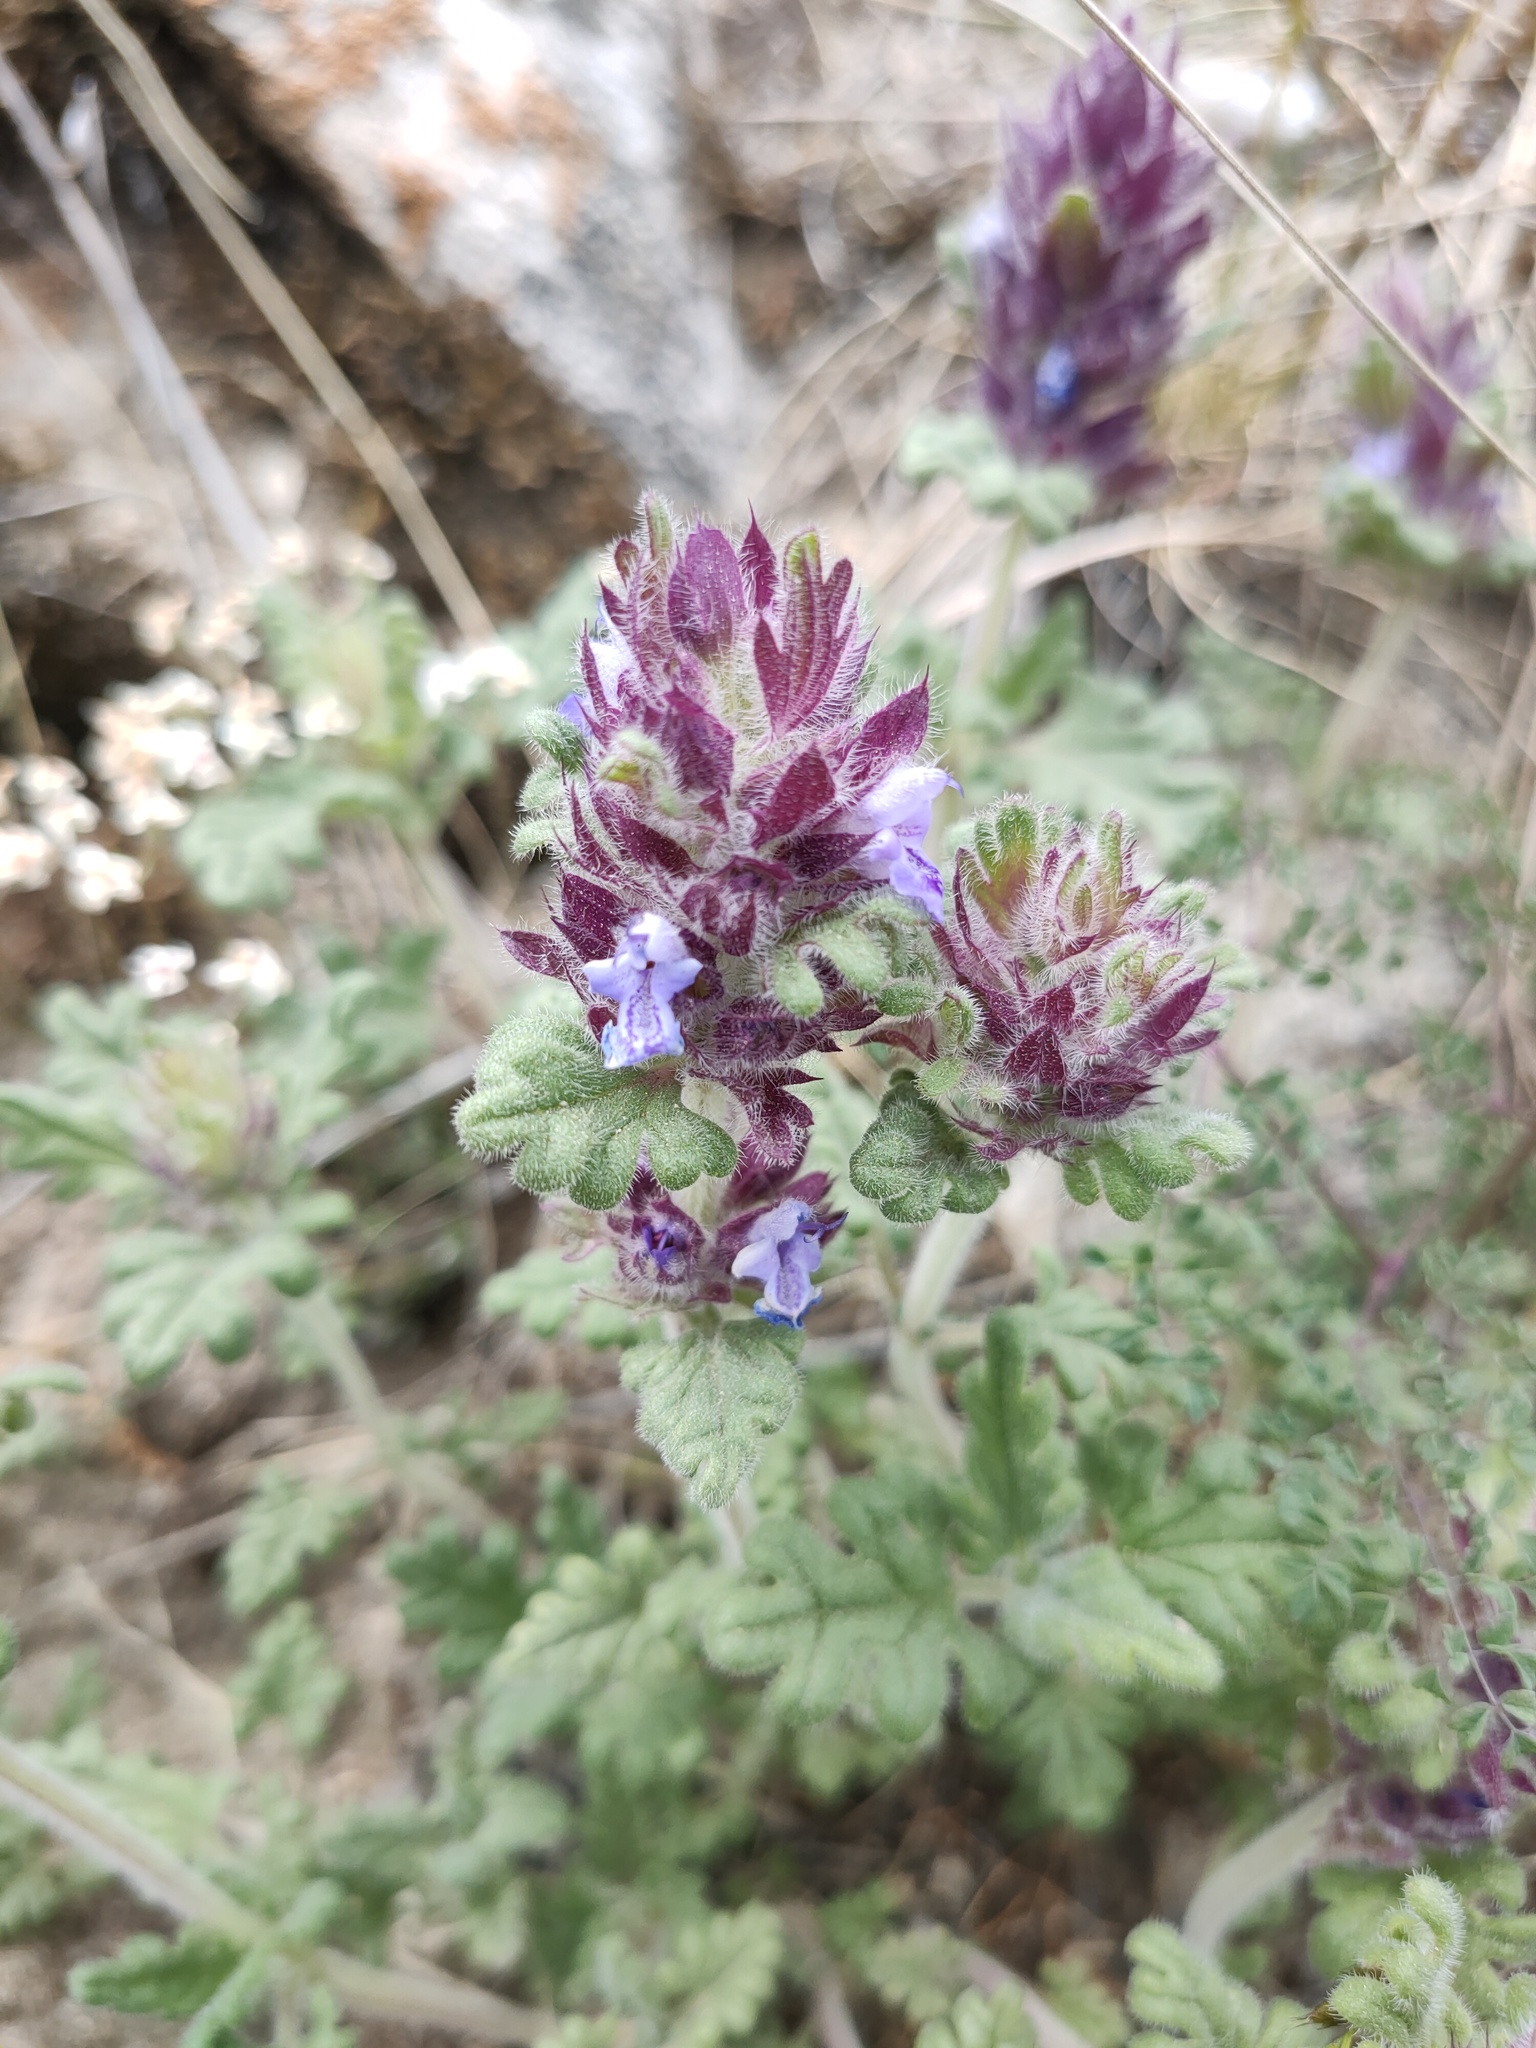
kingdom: Plantae
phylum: Tracheophyta
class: Magnoliopsida
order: Lamiales
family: Lamiaceae
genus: Dracocephalum
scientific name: Dracocephalum pinnatum
